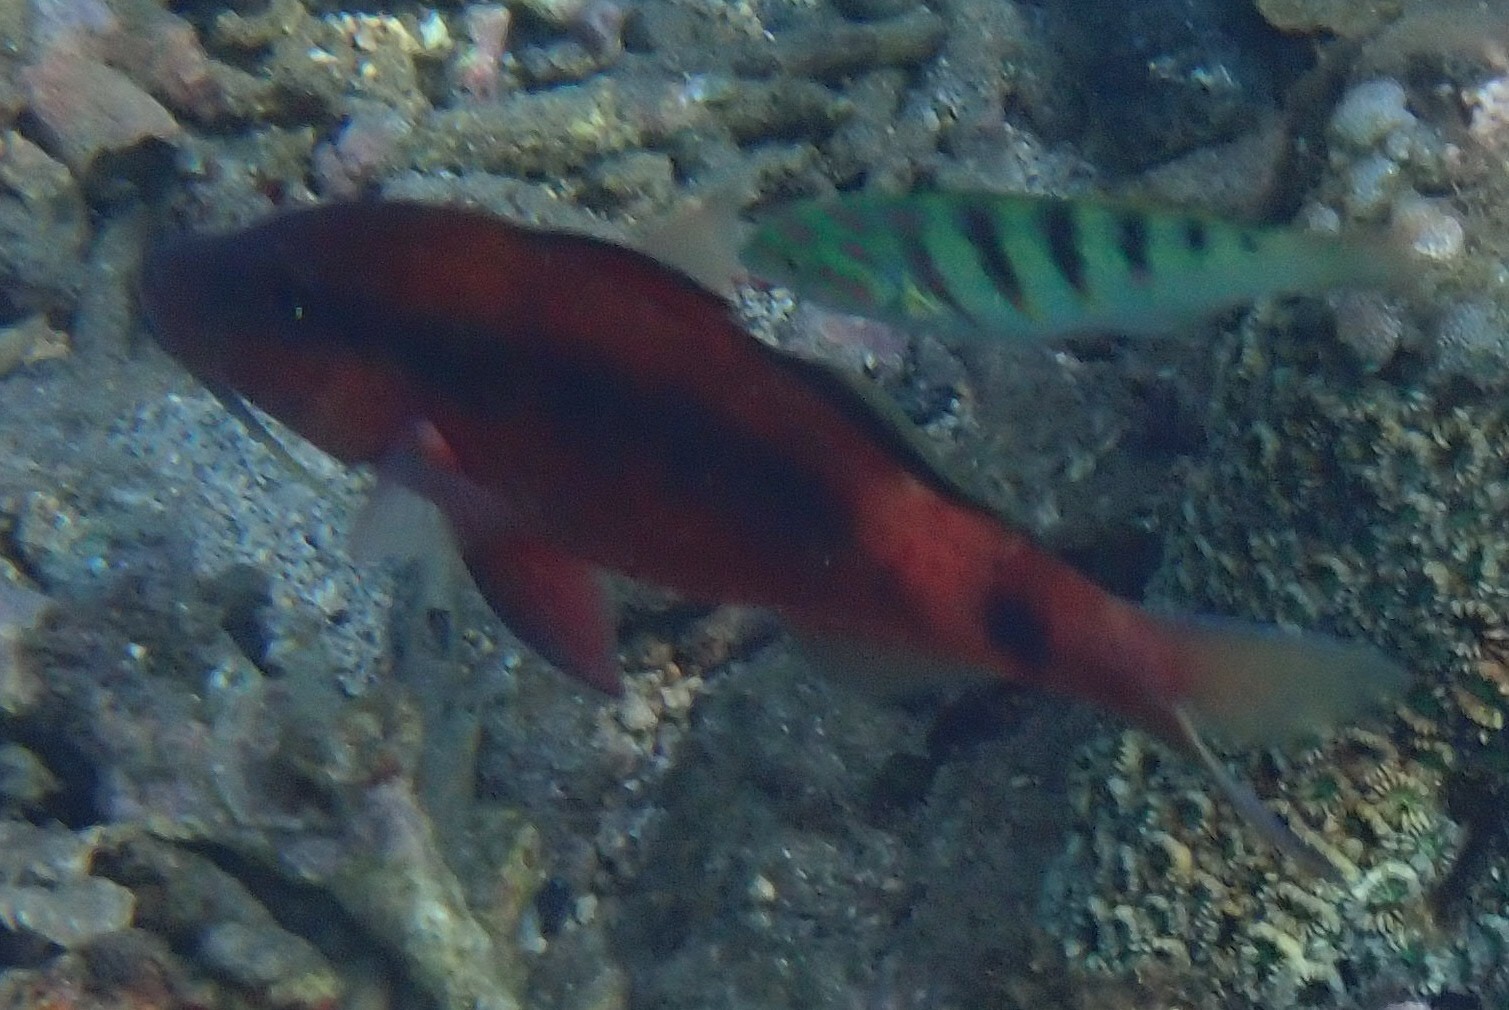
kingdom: Animalia
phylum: Chordata
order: Perciformes
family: Mullidae
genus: Parupeneus
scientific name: Parupeneus macronemus
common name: Long-barbel goatfish
